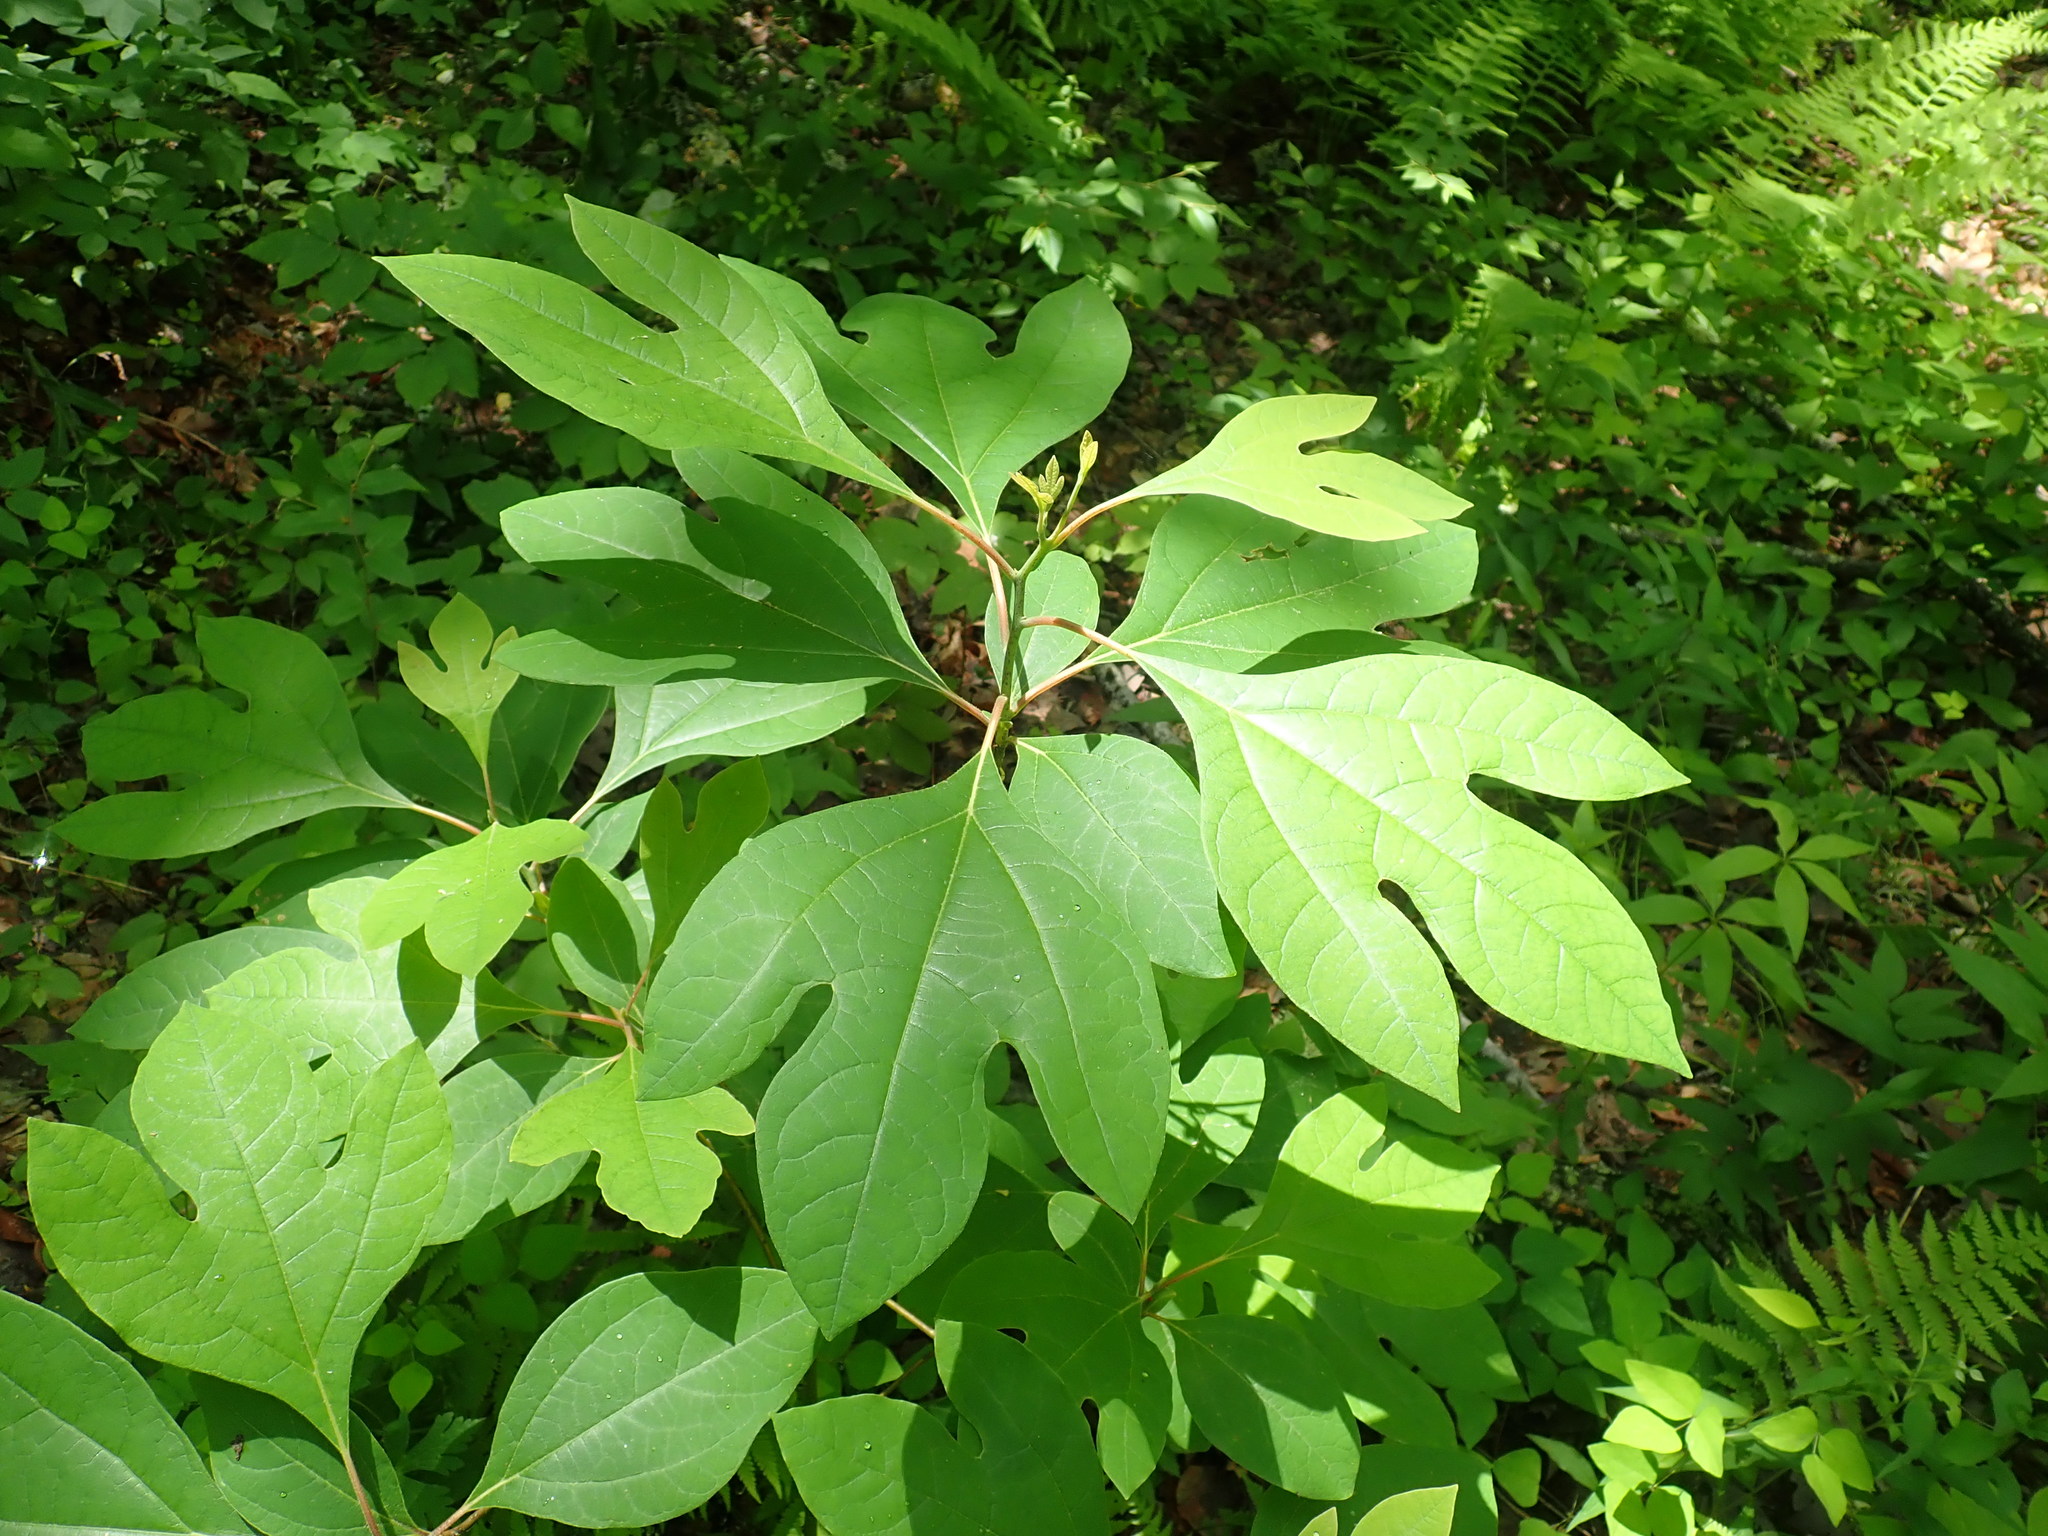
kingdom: Plantae
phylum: Tracheophyta
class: Magnoliopsida
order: Laurales
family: Lauraceae
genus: Sassafras
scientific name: Sassafras albidum
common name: Sassafras
